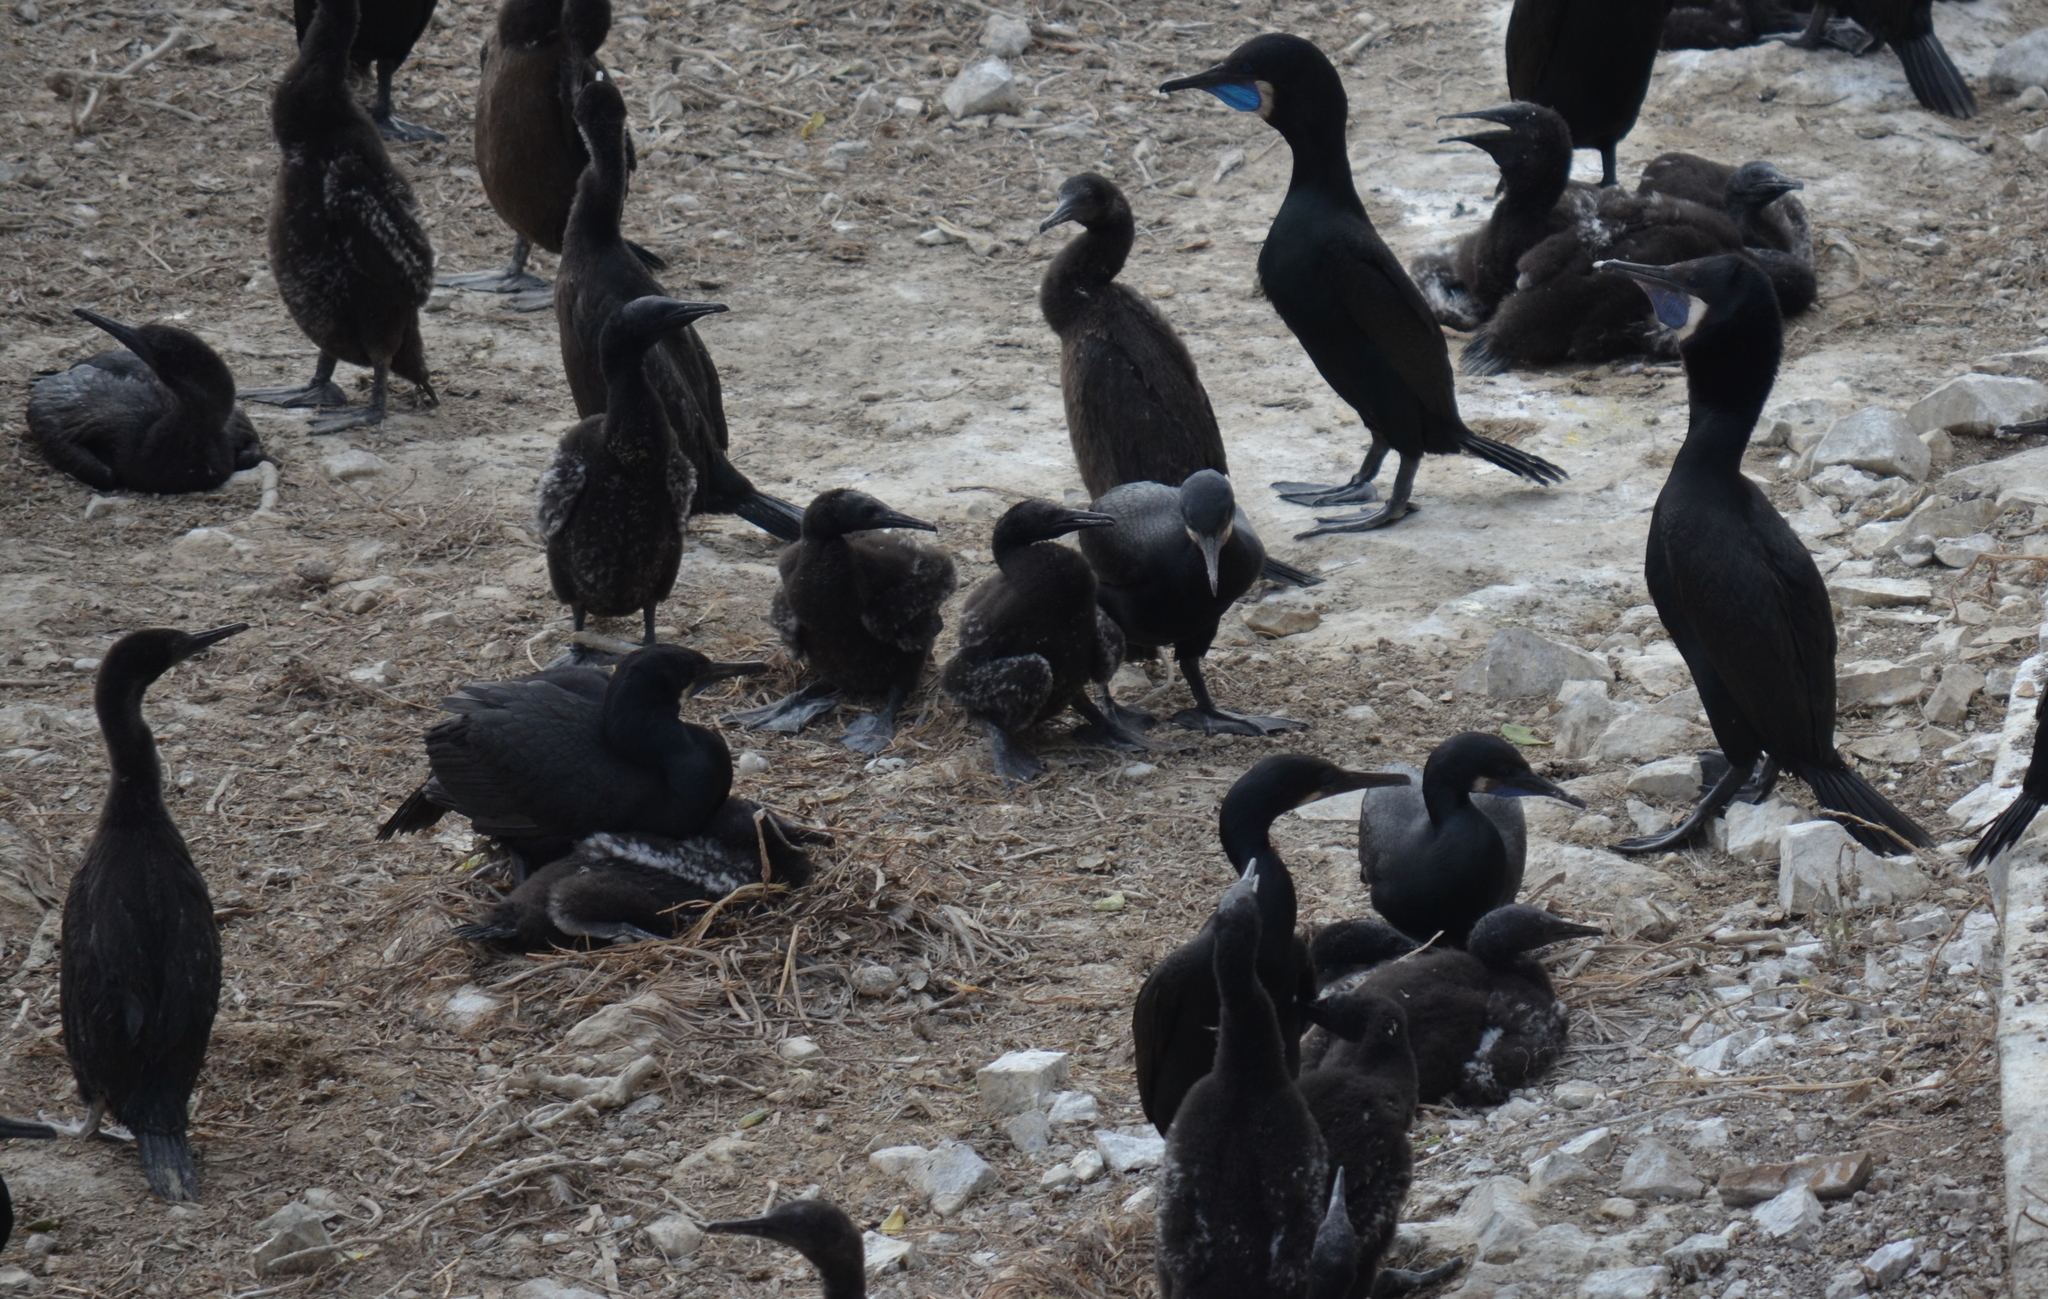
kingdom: Animalia
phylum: Chordata
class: Aves
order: Suliformes
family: Phalacrocoracidae
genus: Urile
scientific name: Urile penicillatus
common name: Brandt's cormorant
